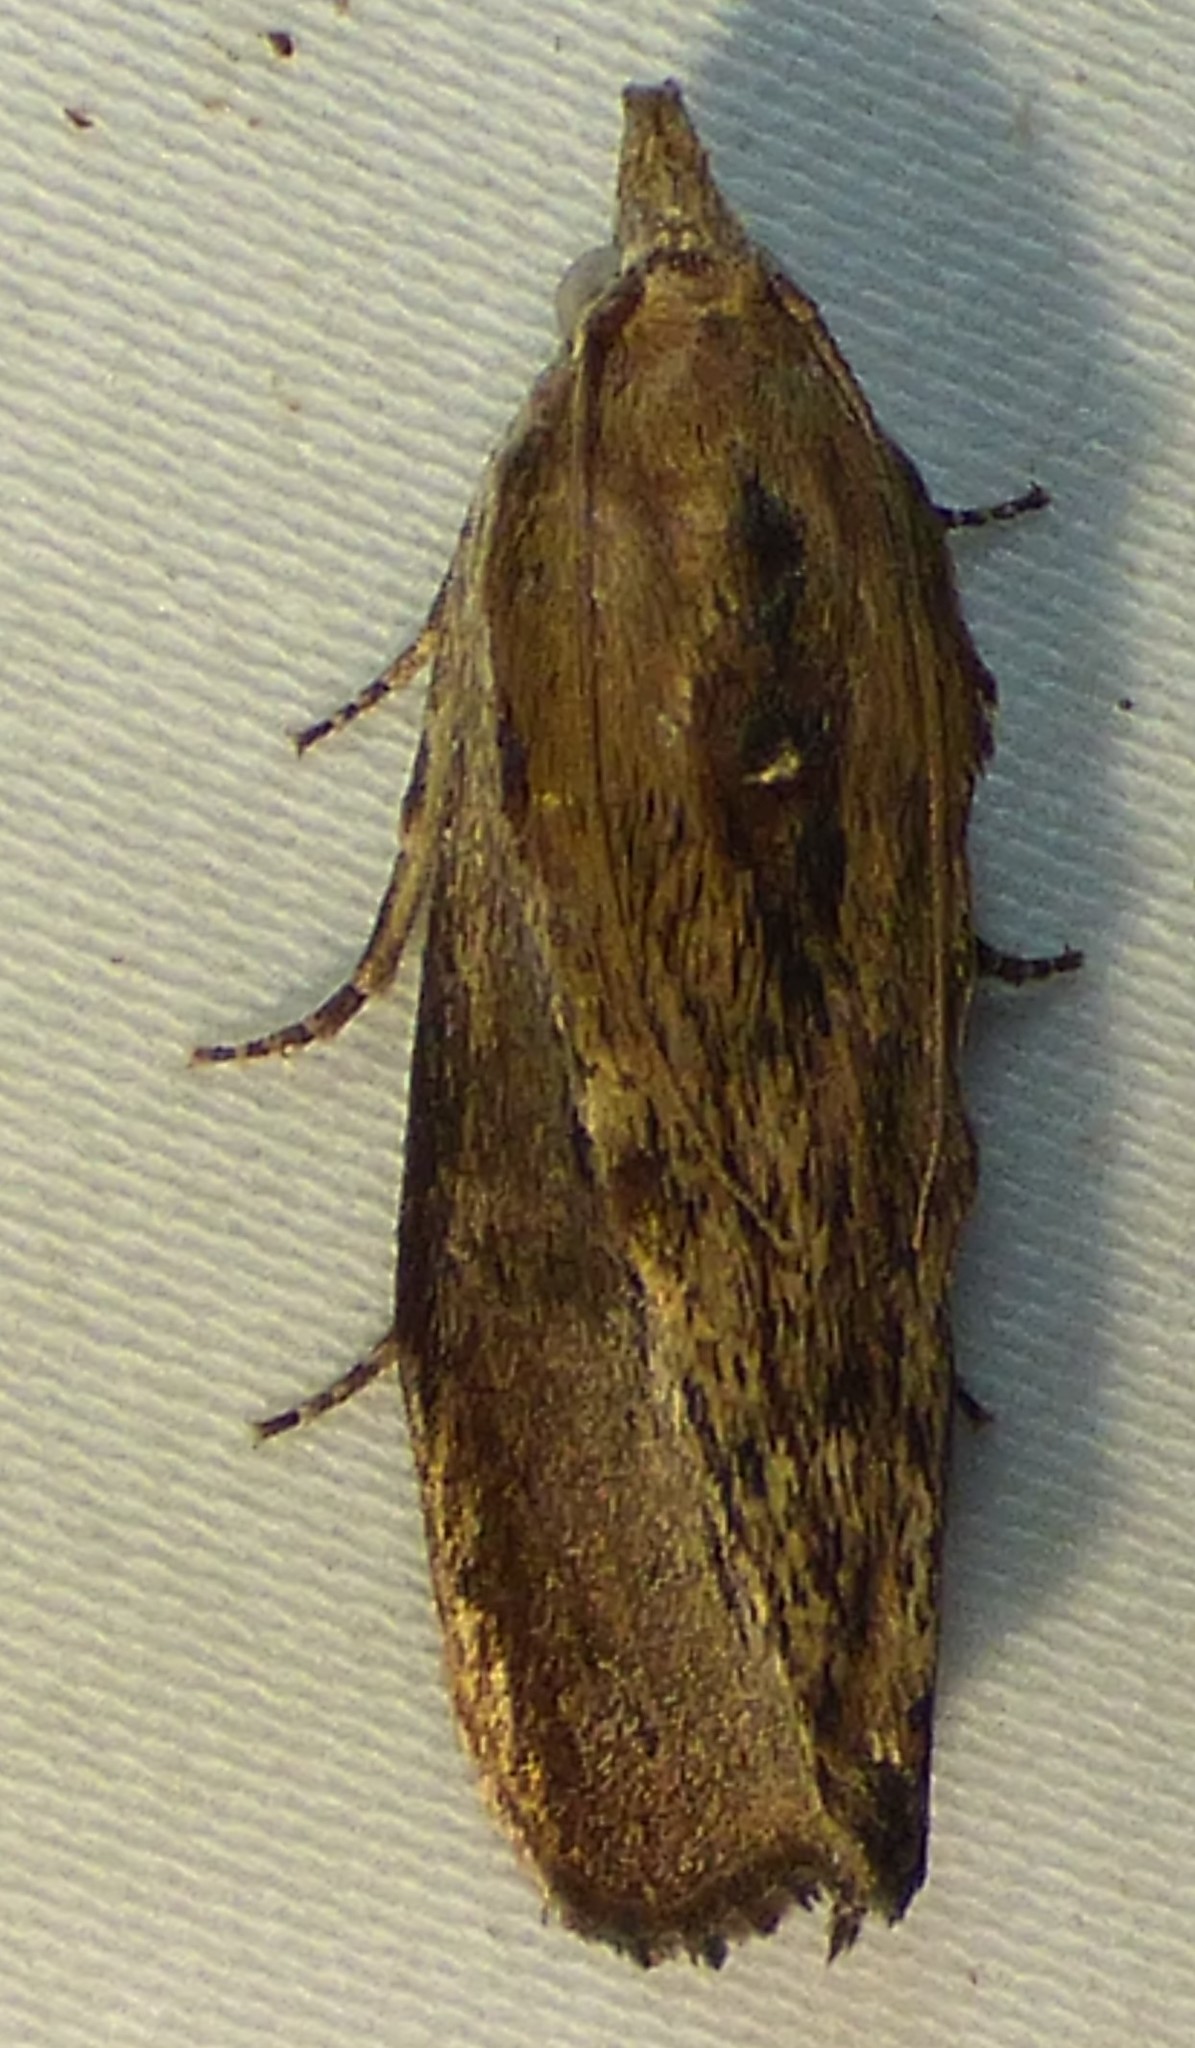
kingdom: Animalia
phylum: Arthropoda
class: Insecta
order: Lepidoptera
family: Pyralidae
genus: Galleria
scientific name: Galleria mellonella
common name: Greater wax moth
